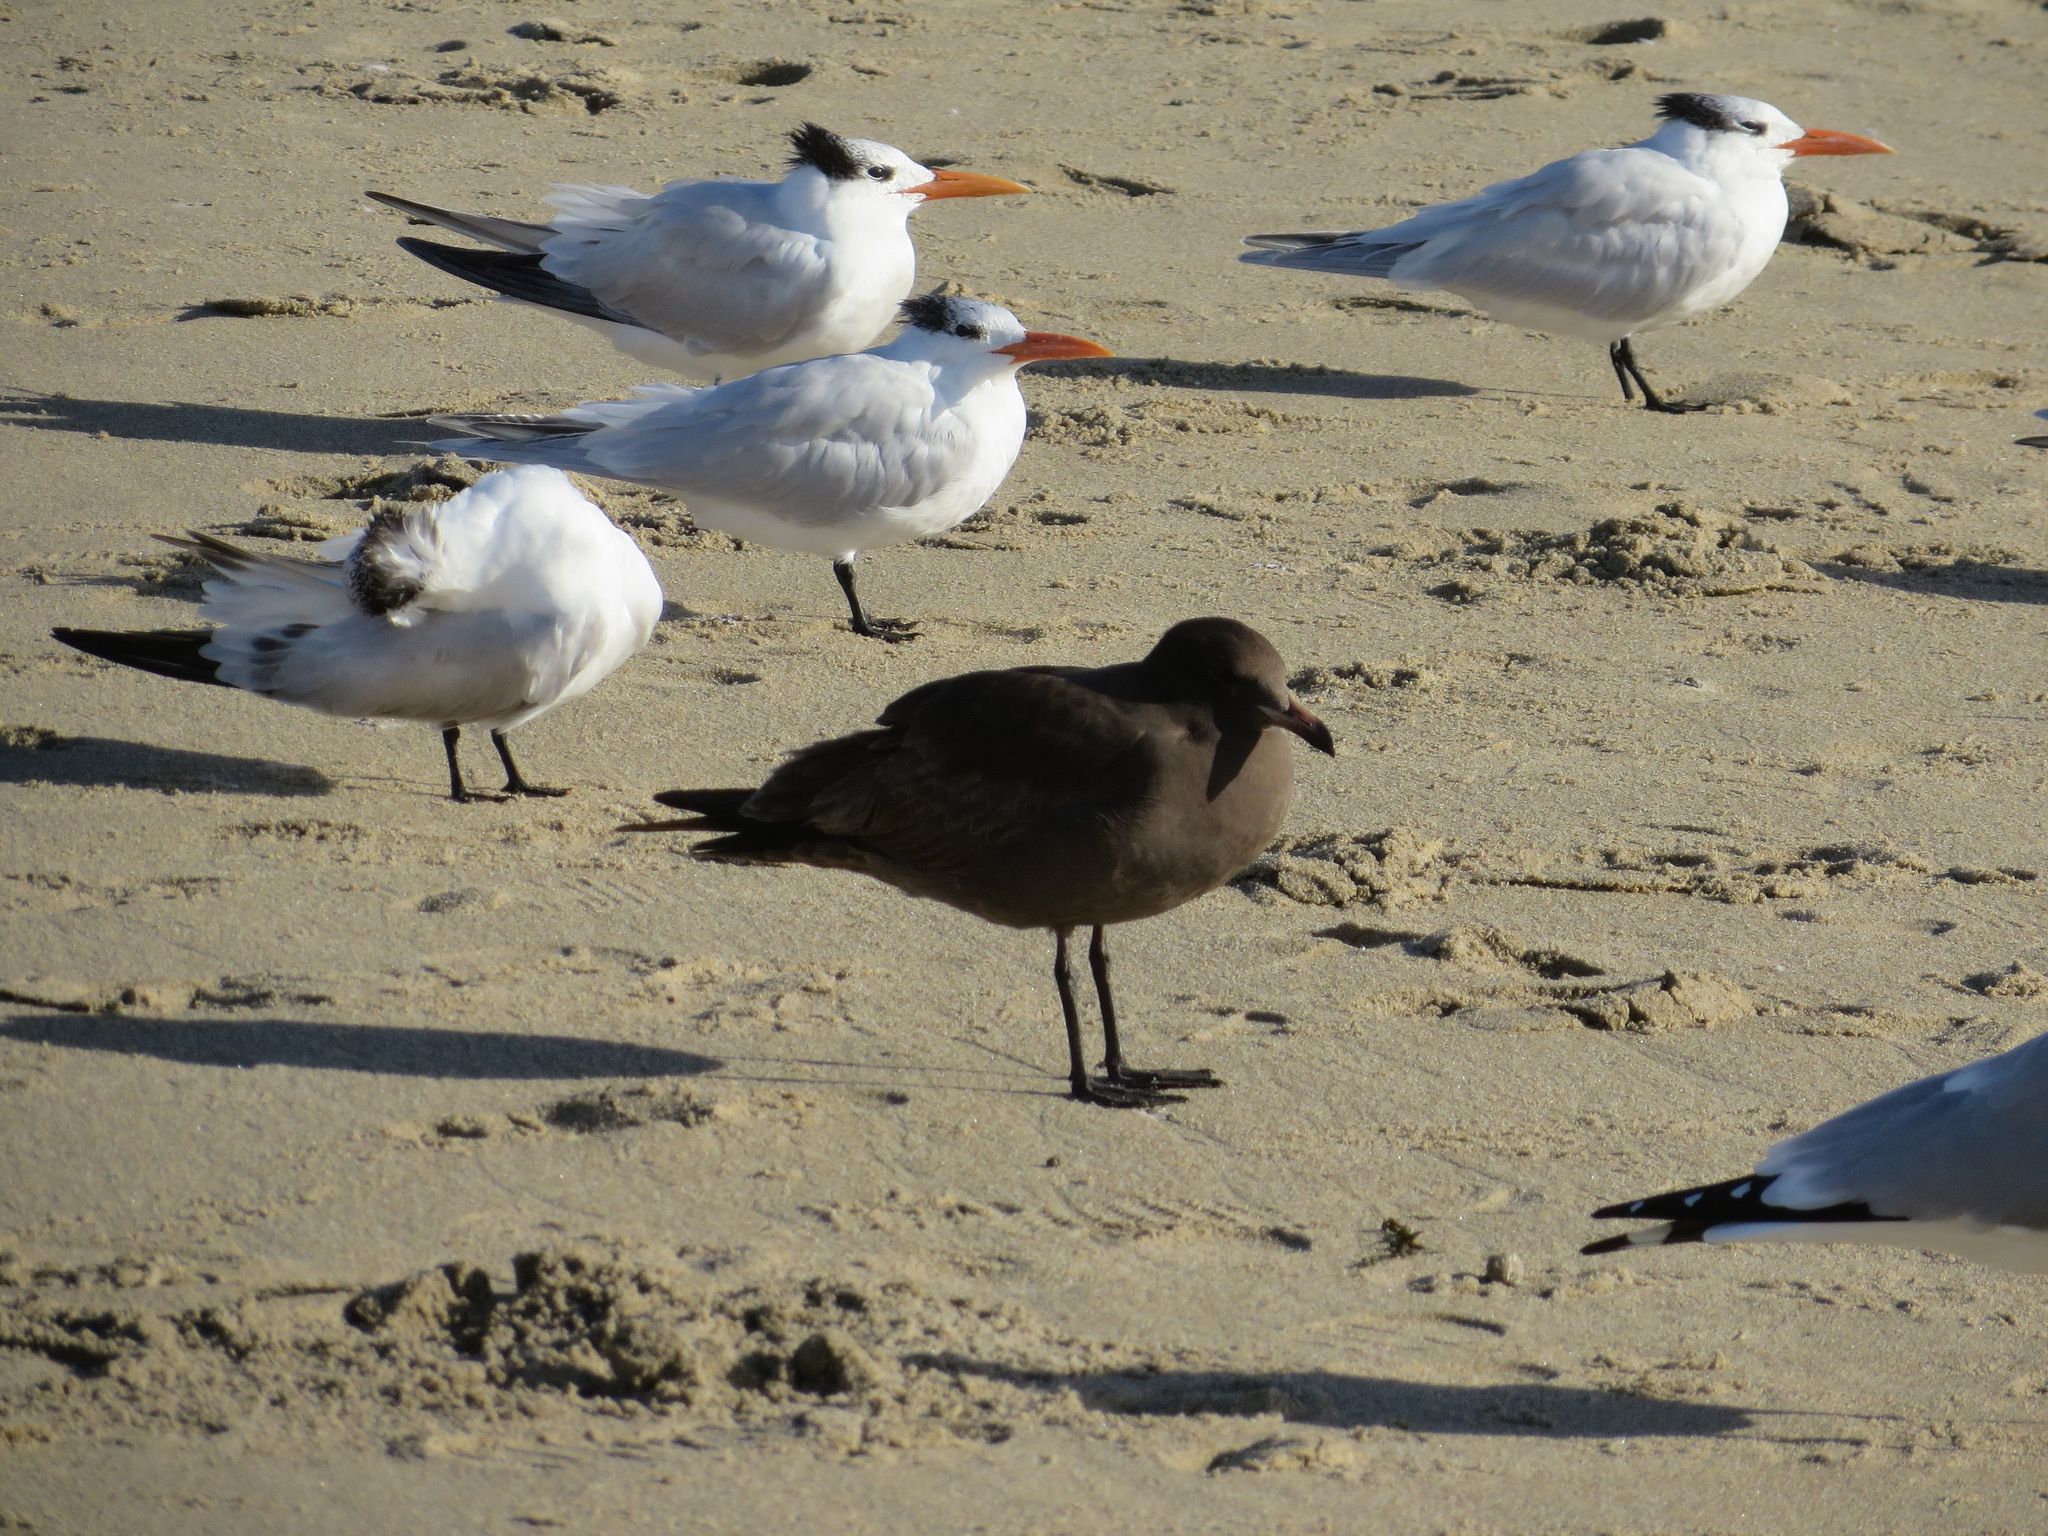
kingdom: Animalia
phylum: Chordata
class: Aves
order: Charadriiformes
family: Laridae
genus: Larus
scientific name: Larus heermanni
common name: Heermann's gull
